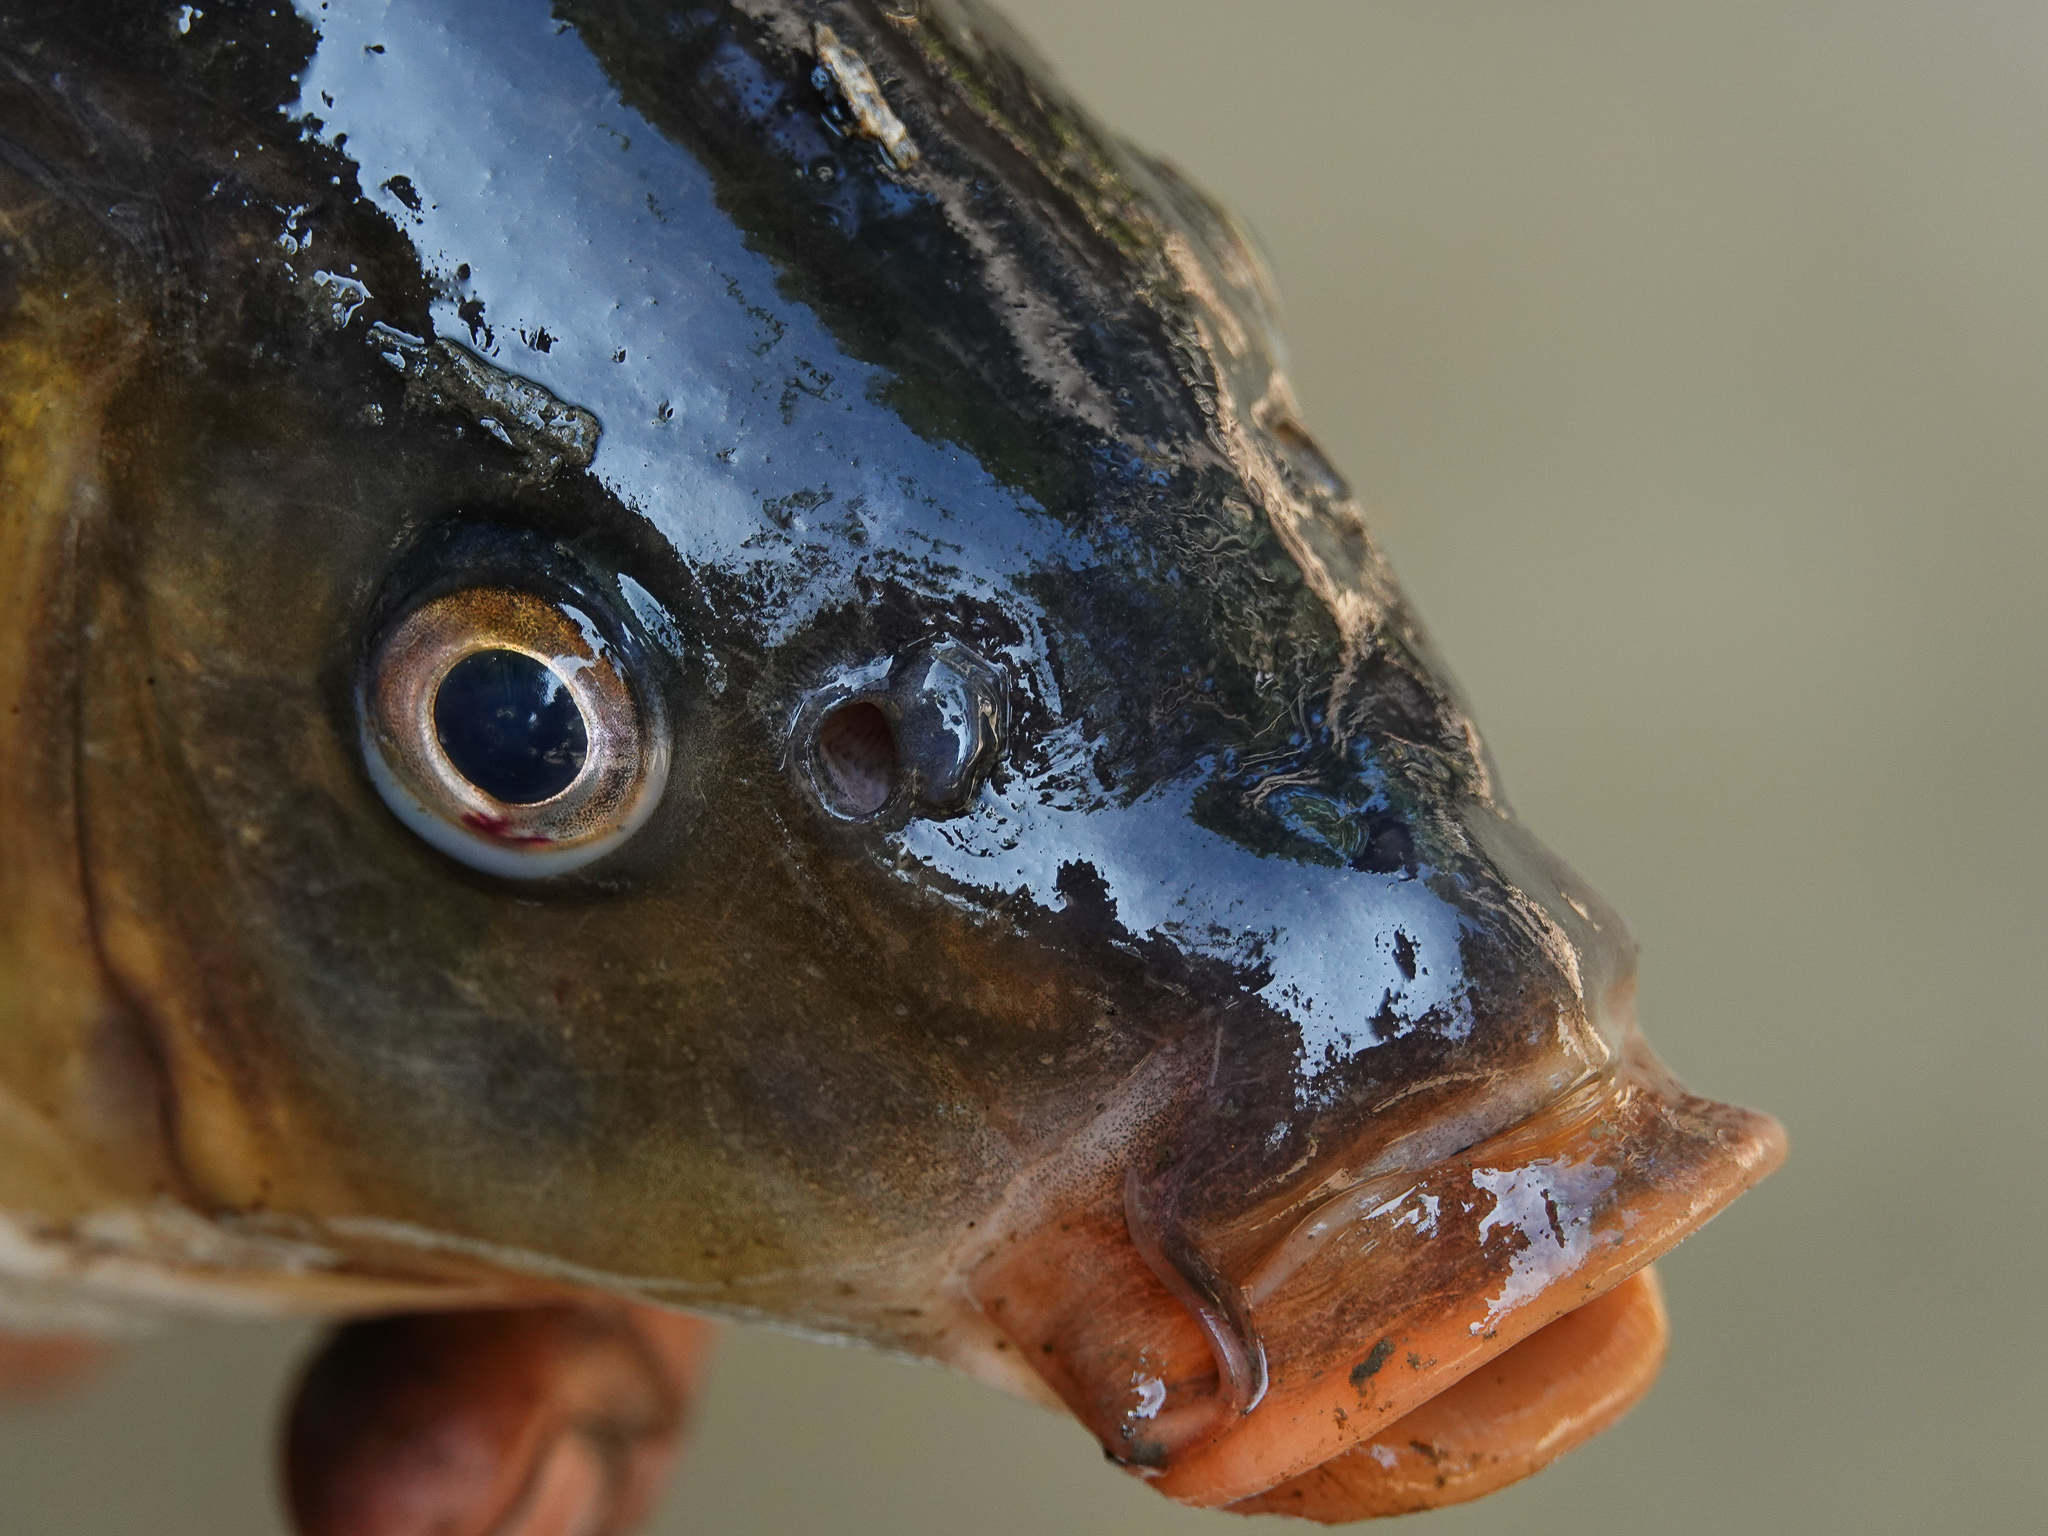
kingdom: Animalia
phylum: Chordata
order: Perciformes
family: Channidae
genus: Channa
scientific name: Channa punctata
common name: Spotted snakehead
